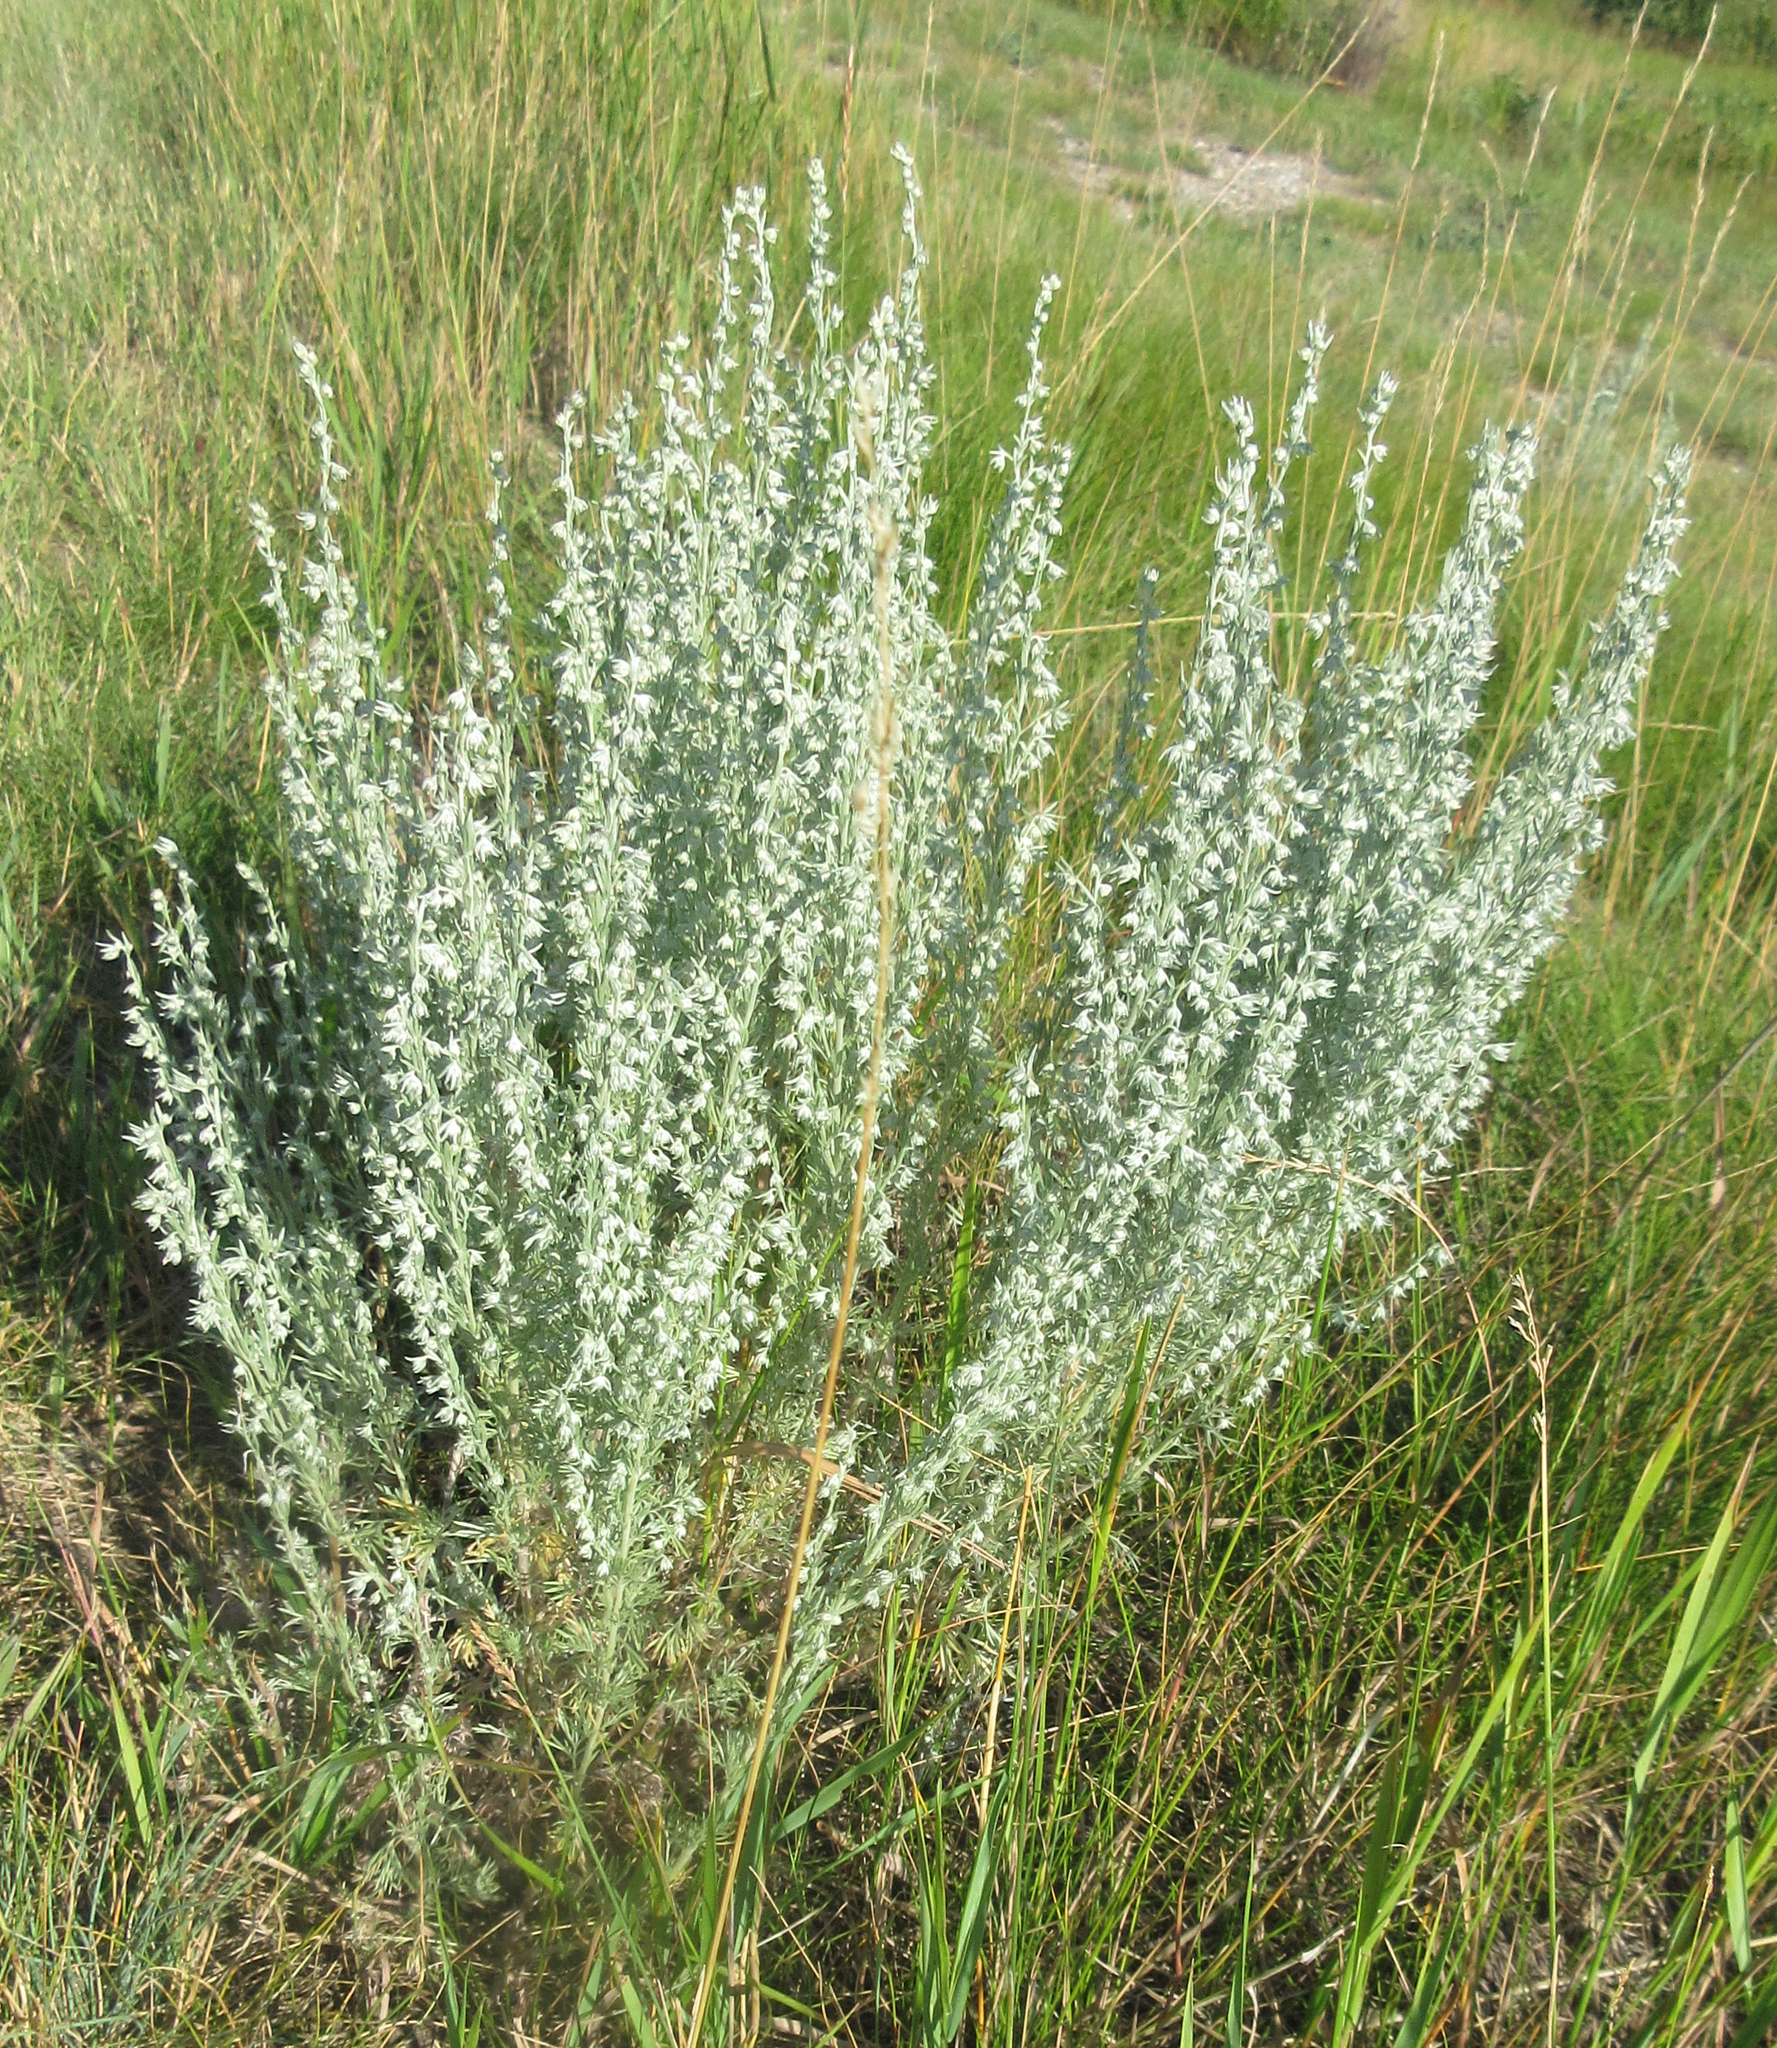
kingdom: Plantae
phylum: Tracheophyta
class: Magnoliopsida
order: Asterales
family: Asteraceae
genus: Artemisia
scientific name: Artemisia frigida
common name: Prairie sagewort
